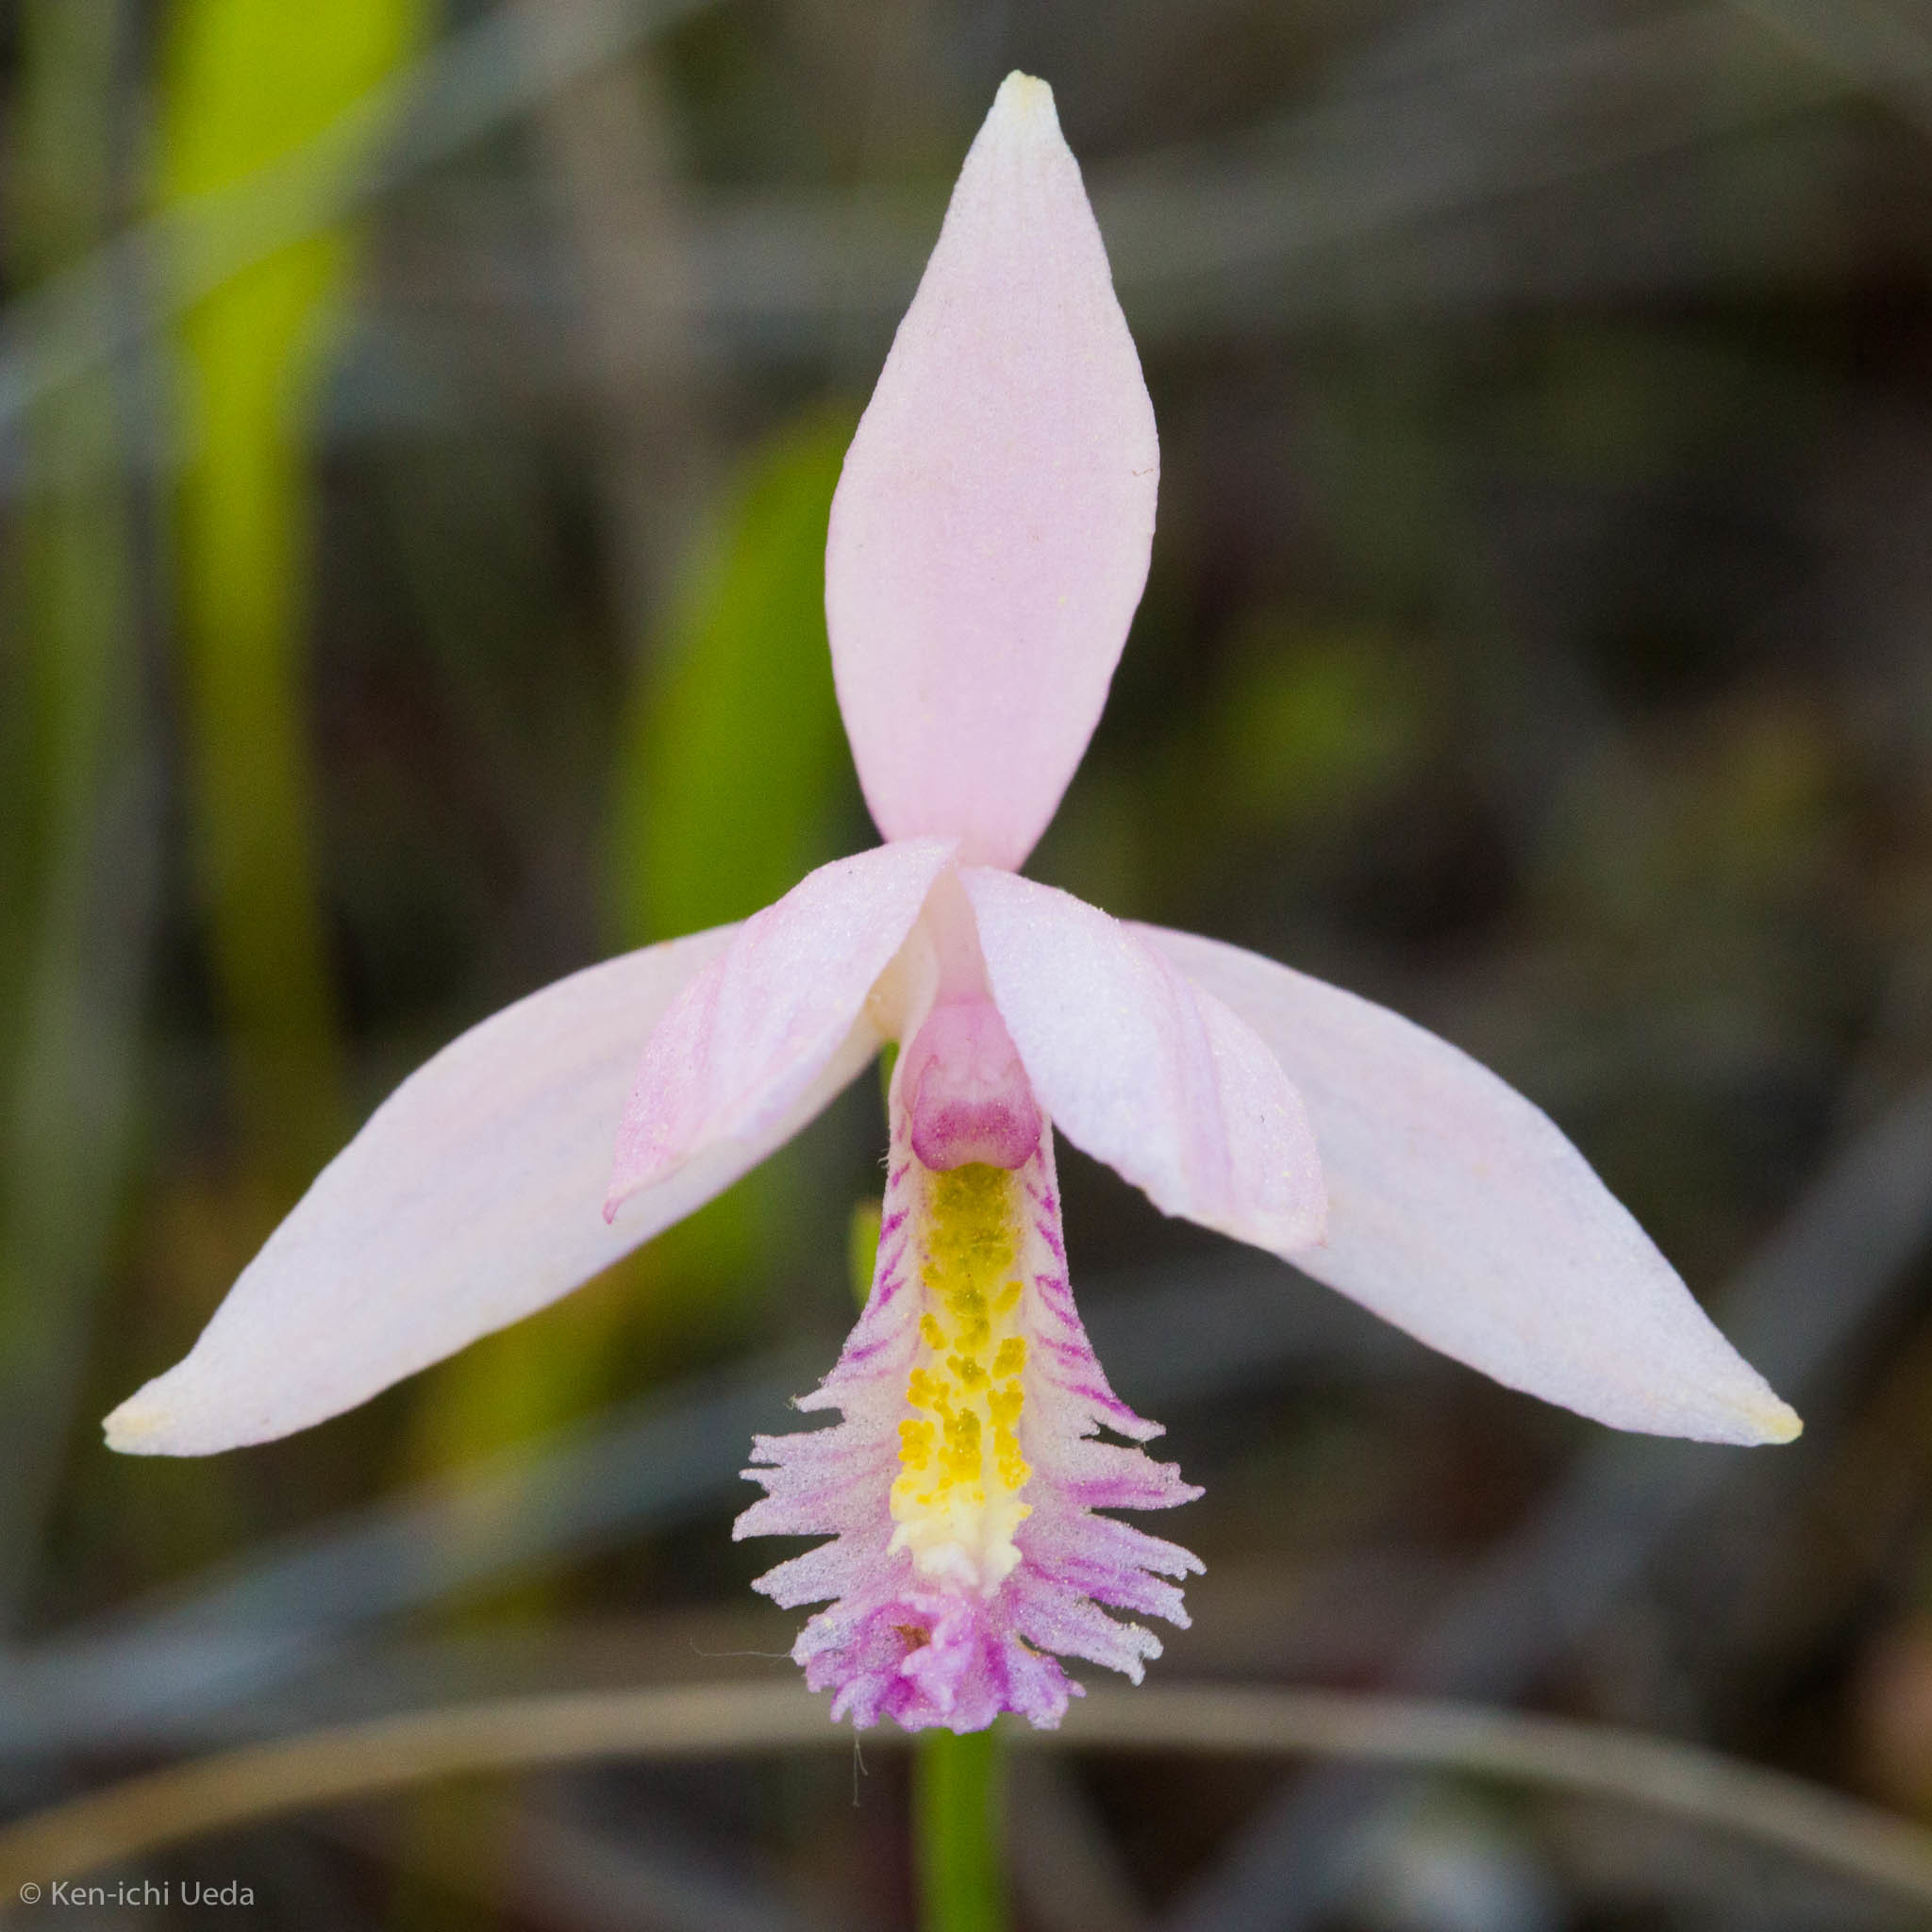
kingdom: Plantae
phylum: Tracheophyta
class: Liliopsida
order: Asparagales
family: Orchidaceae
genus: Pogonia
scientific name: Pogonia ophioglossoides
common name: Rose pogonia
